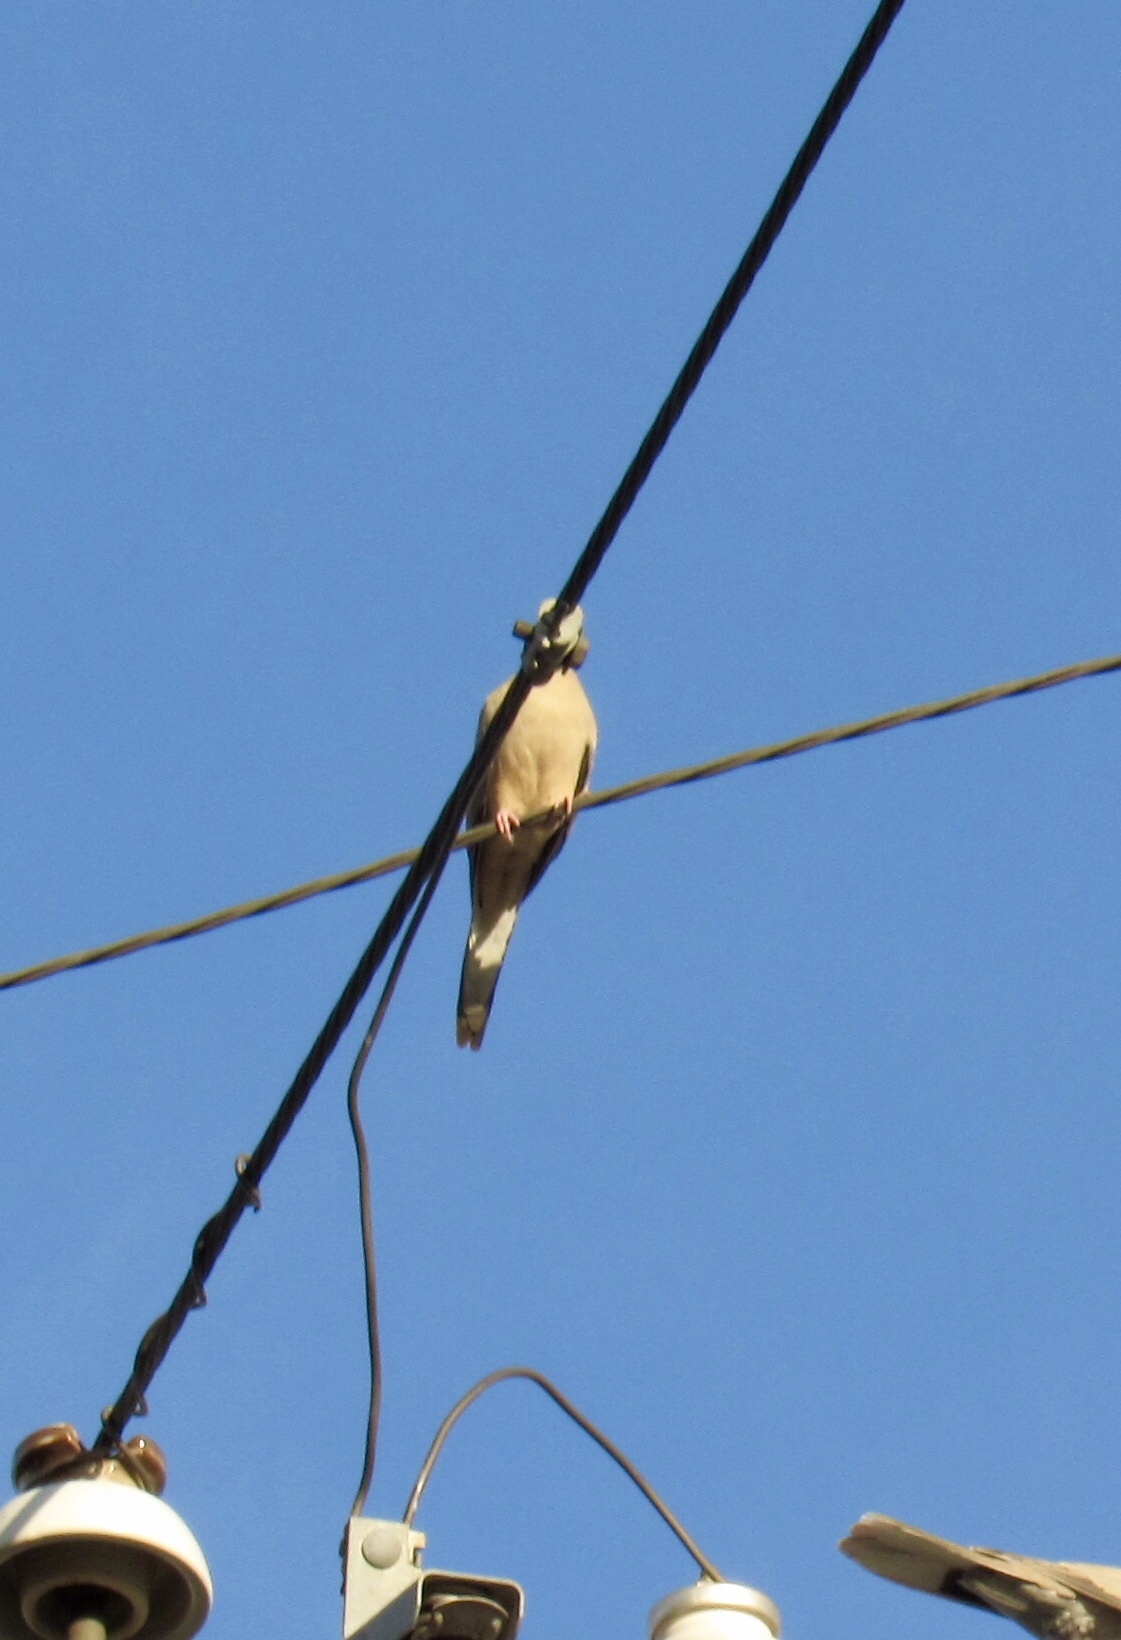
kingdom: Animalia
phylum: Chordata
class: Aves
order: Columbiformes
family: Columbidae
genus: Streptopelia
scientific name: Streptopelia decaocto
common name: Eurasian collared dove
